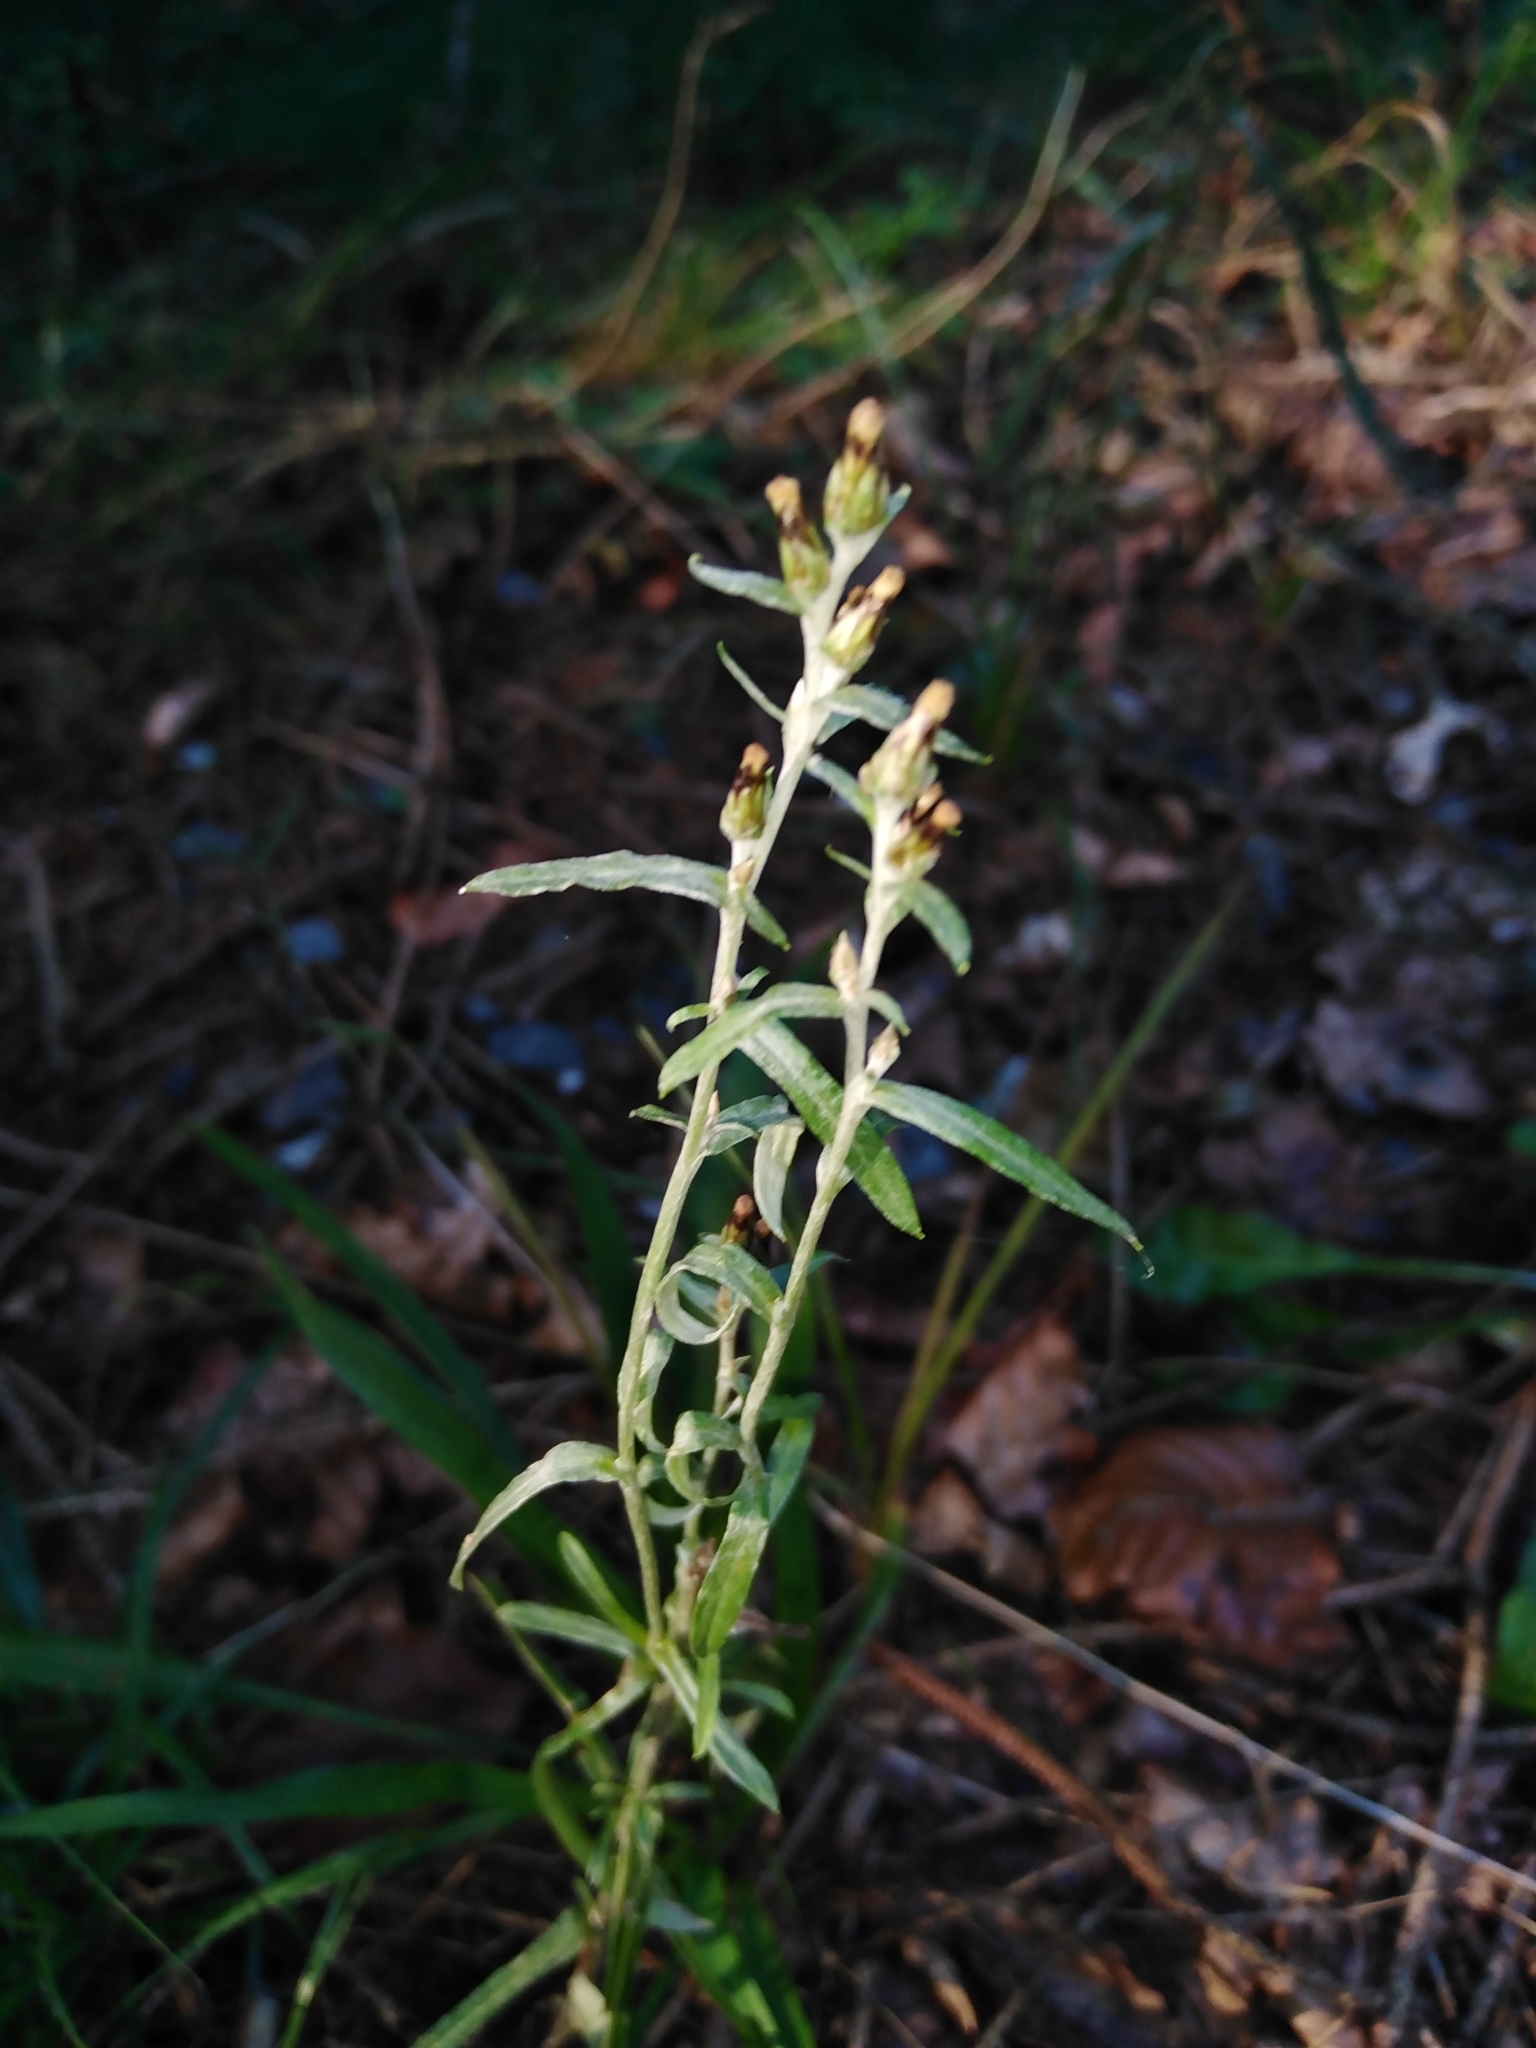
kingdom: Plantae
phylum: Tracheophyta
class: Magnoliopsida
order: Asterales
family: Asteraceae
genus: Omalotheca
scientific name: Omalotheca sylvatica
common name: Heath cudweed
